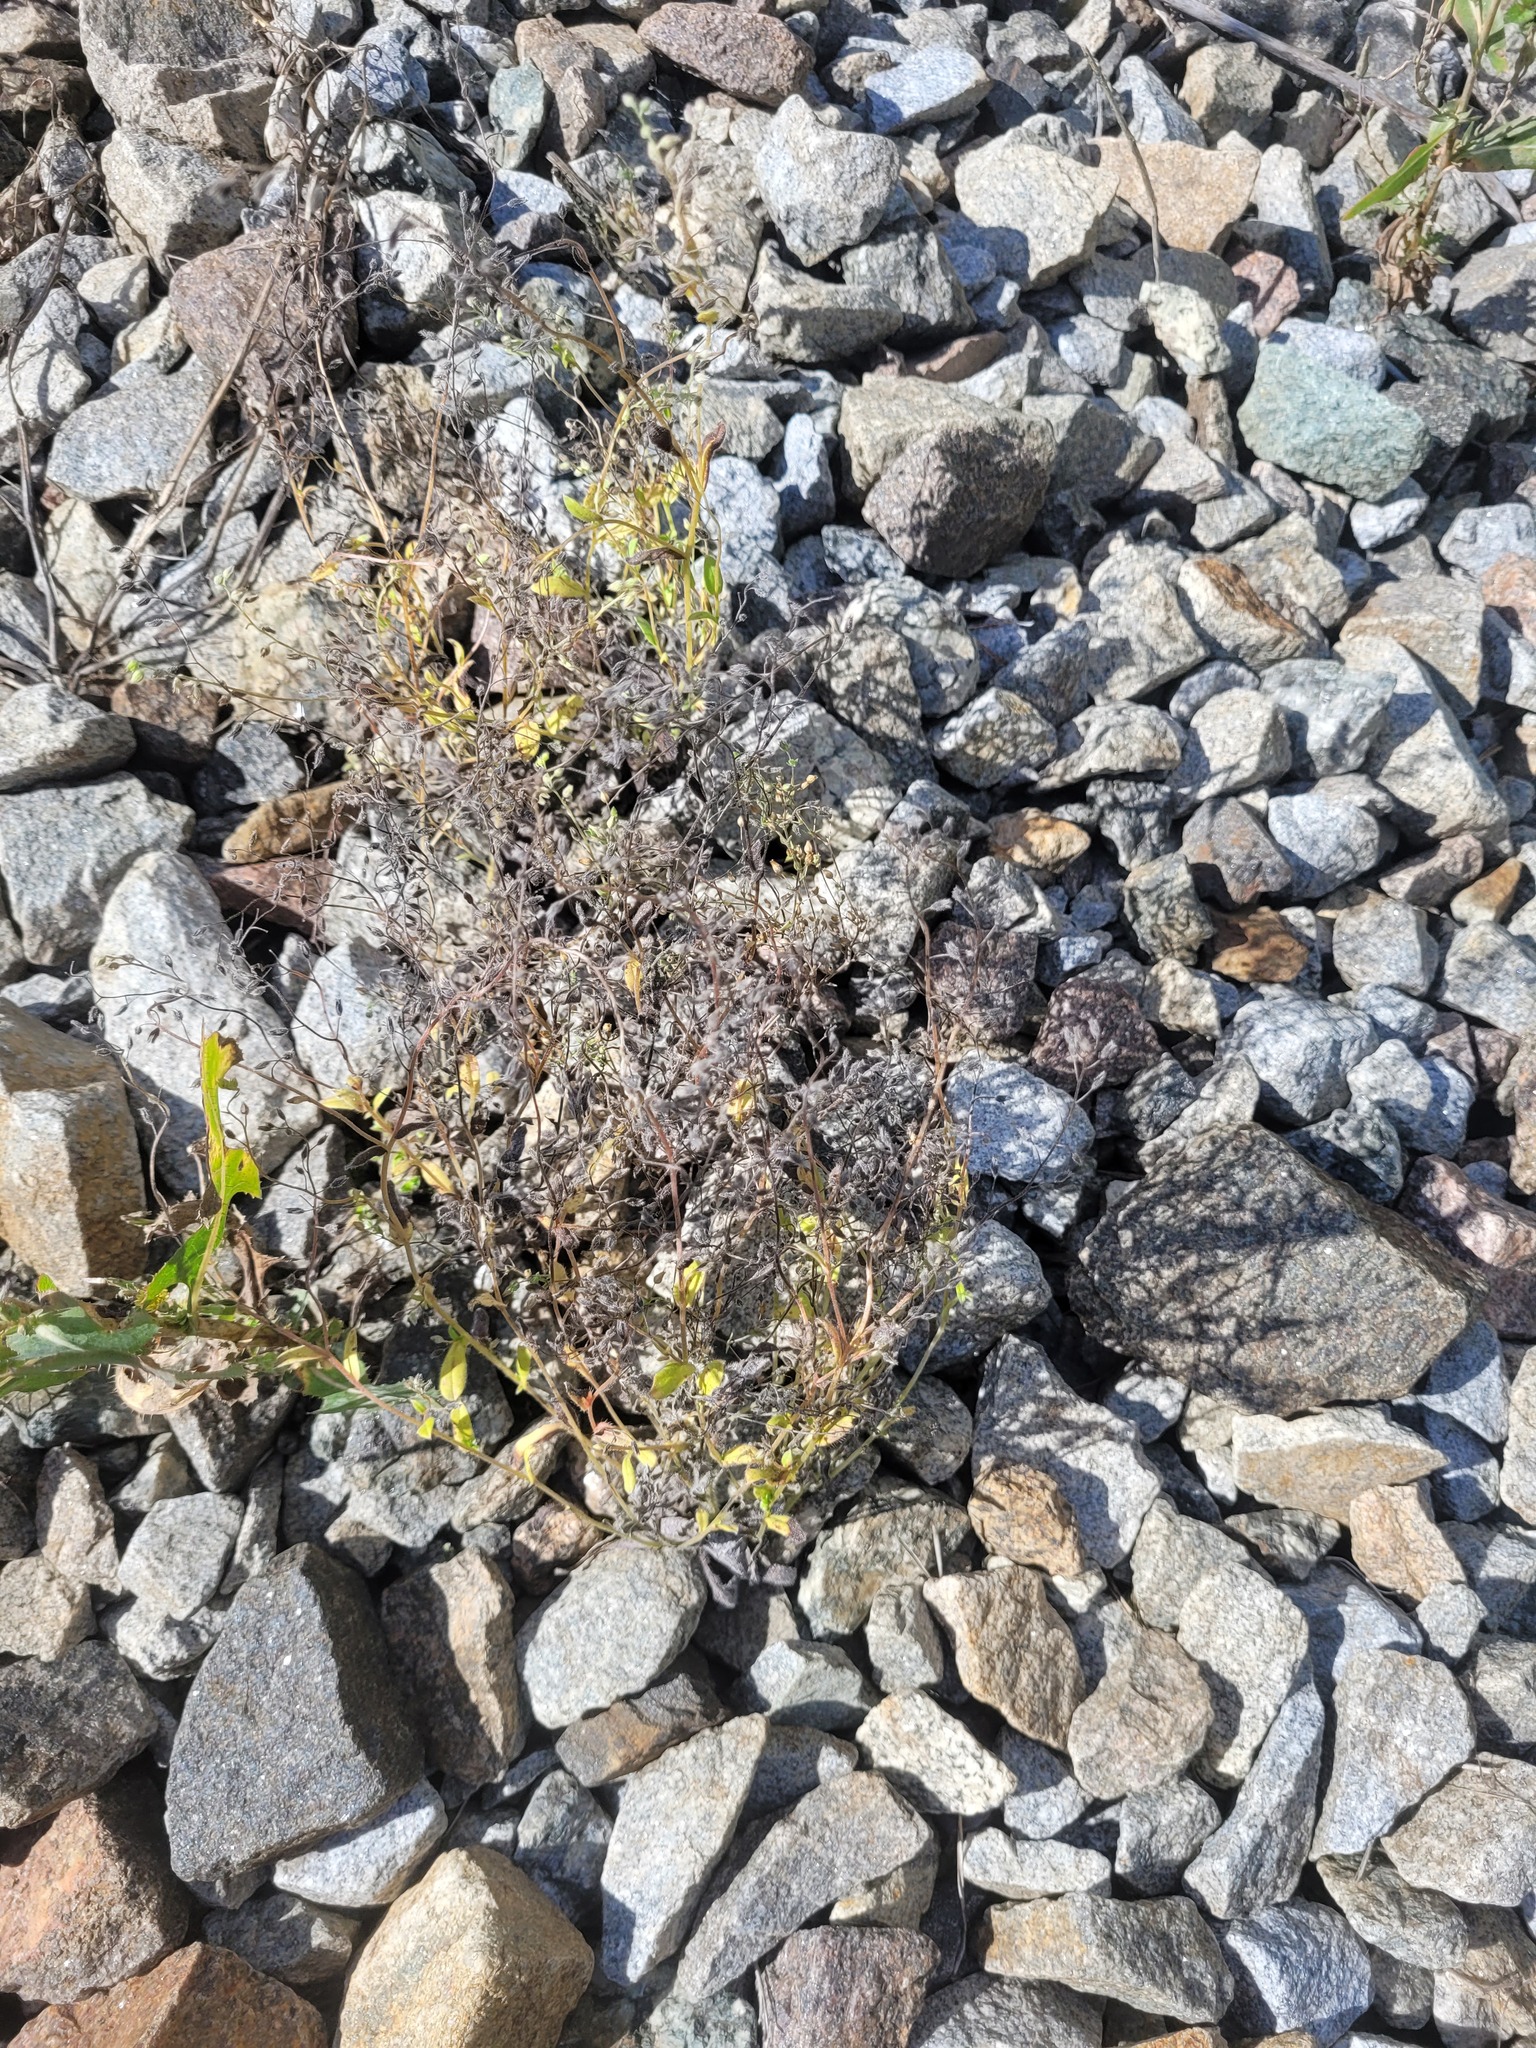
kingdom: Plantae
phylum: Tracheophyta
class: Magnoliopsida
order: Boraginales
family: Boraginaceae
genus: Myosotis
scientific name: Myosotis arvensis
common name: Field forget-me-not
